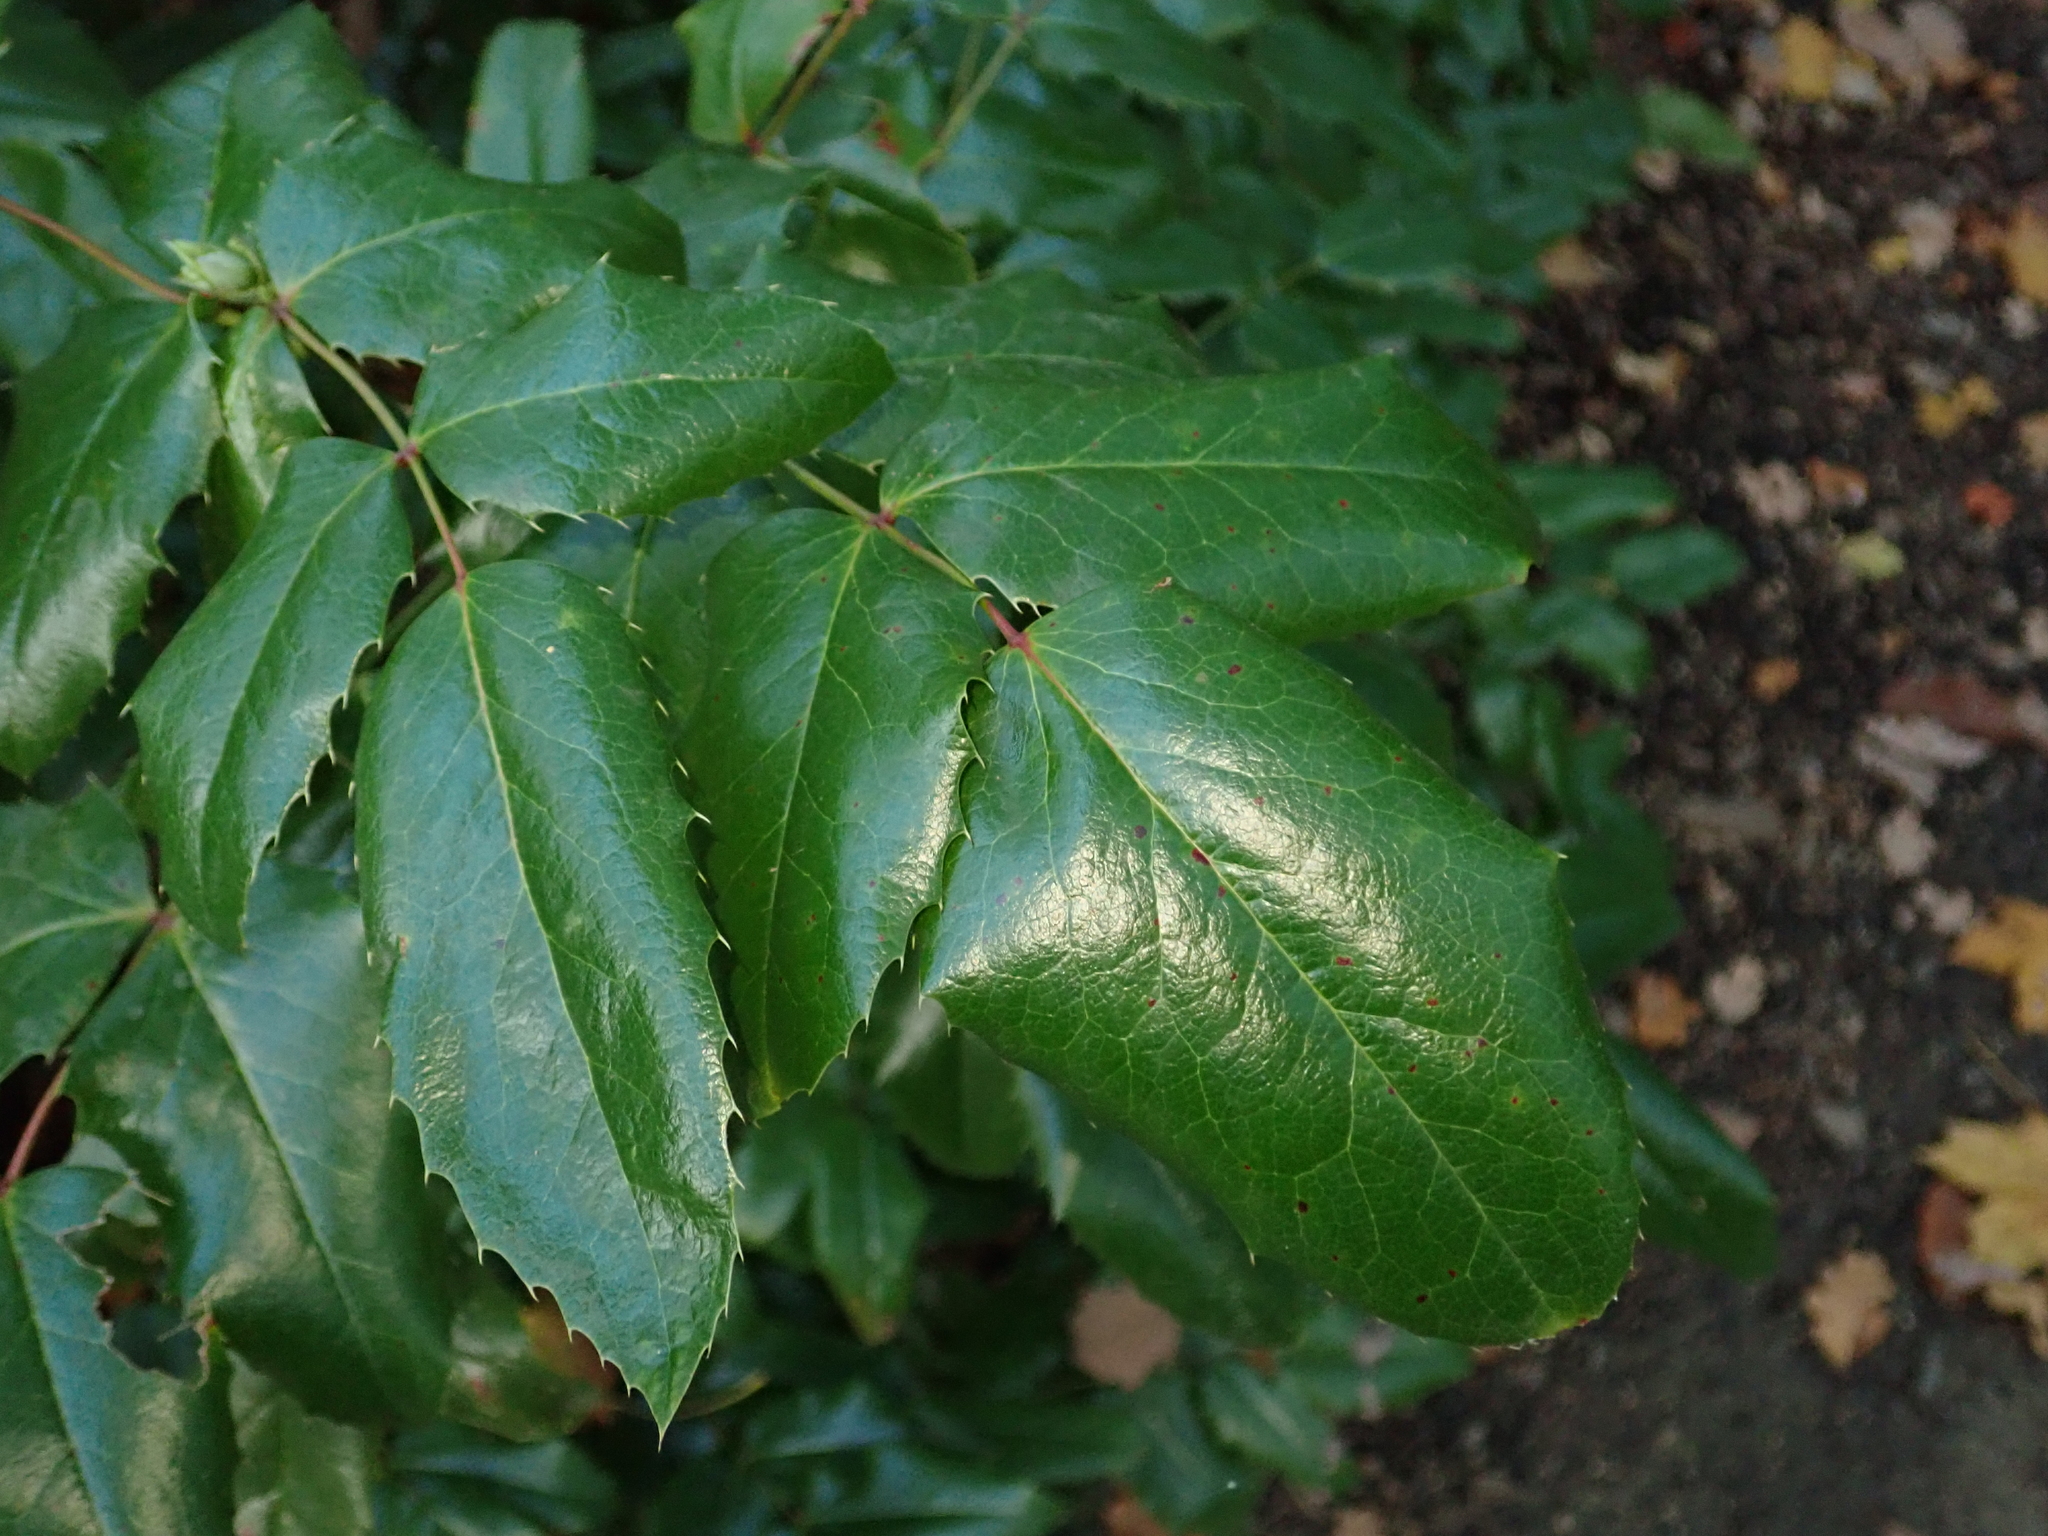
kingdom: Plantae
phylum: Tracheophyta
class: Magnoliopsida
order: Ranunculales
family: Berberidaceae
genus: Mahonia
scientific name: Mahonia aquifolium
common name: Oregon-grape
